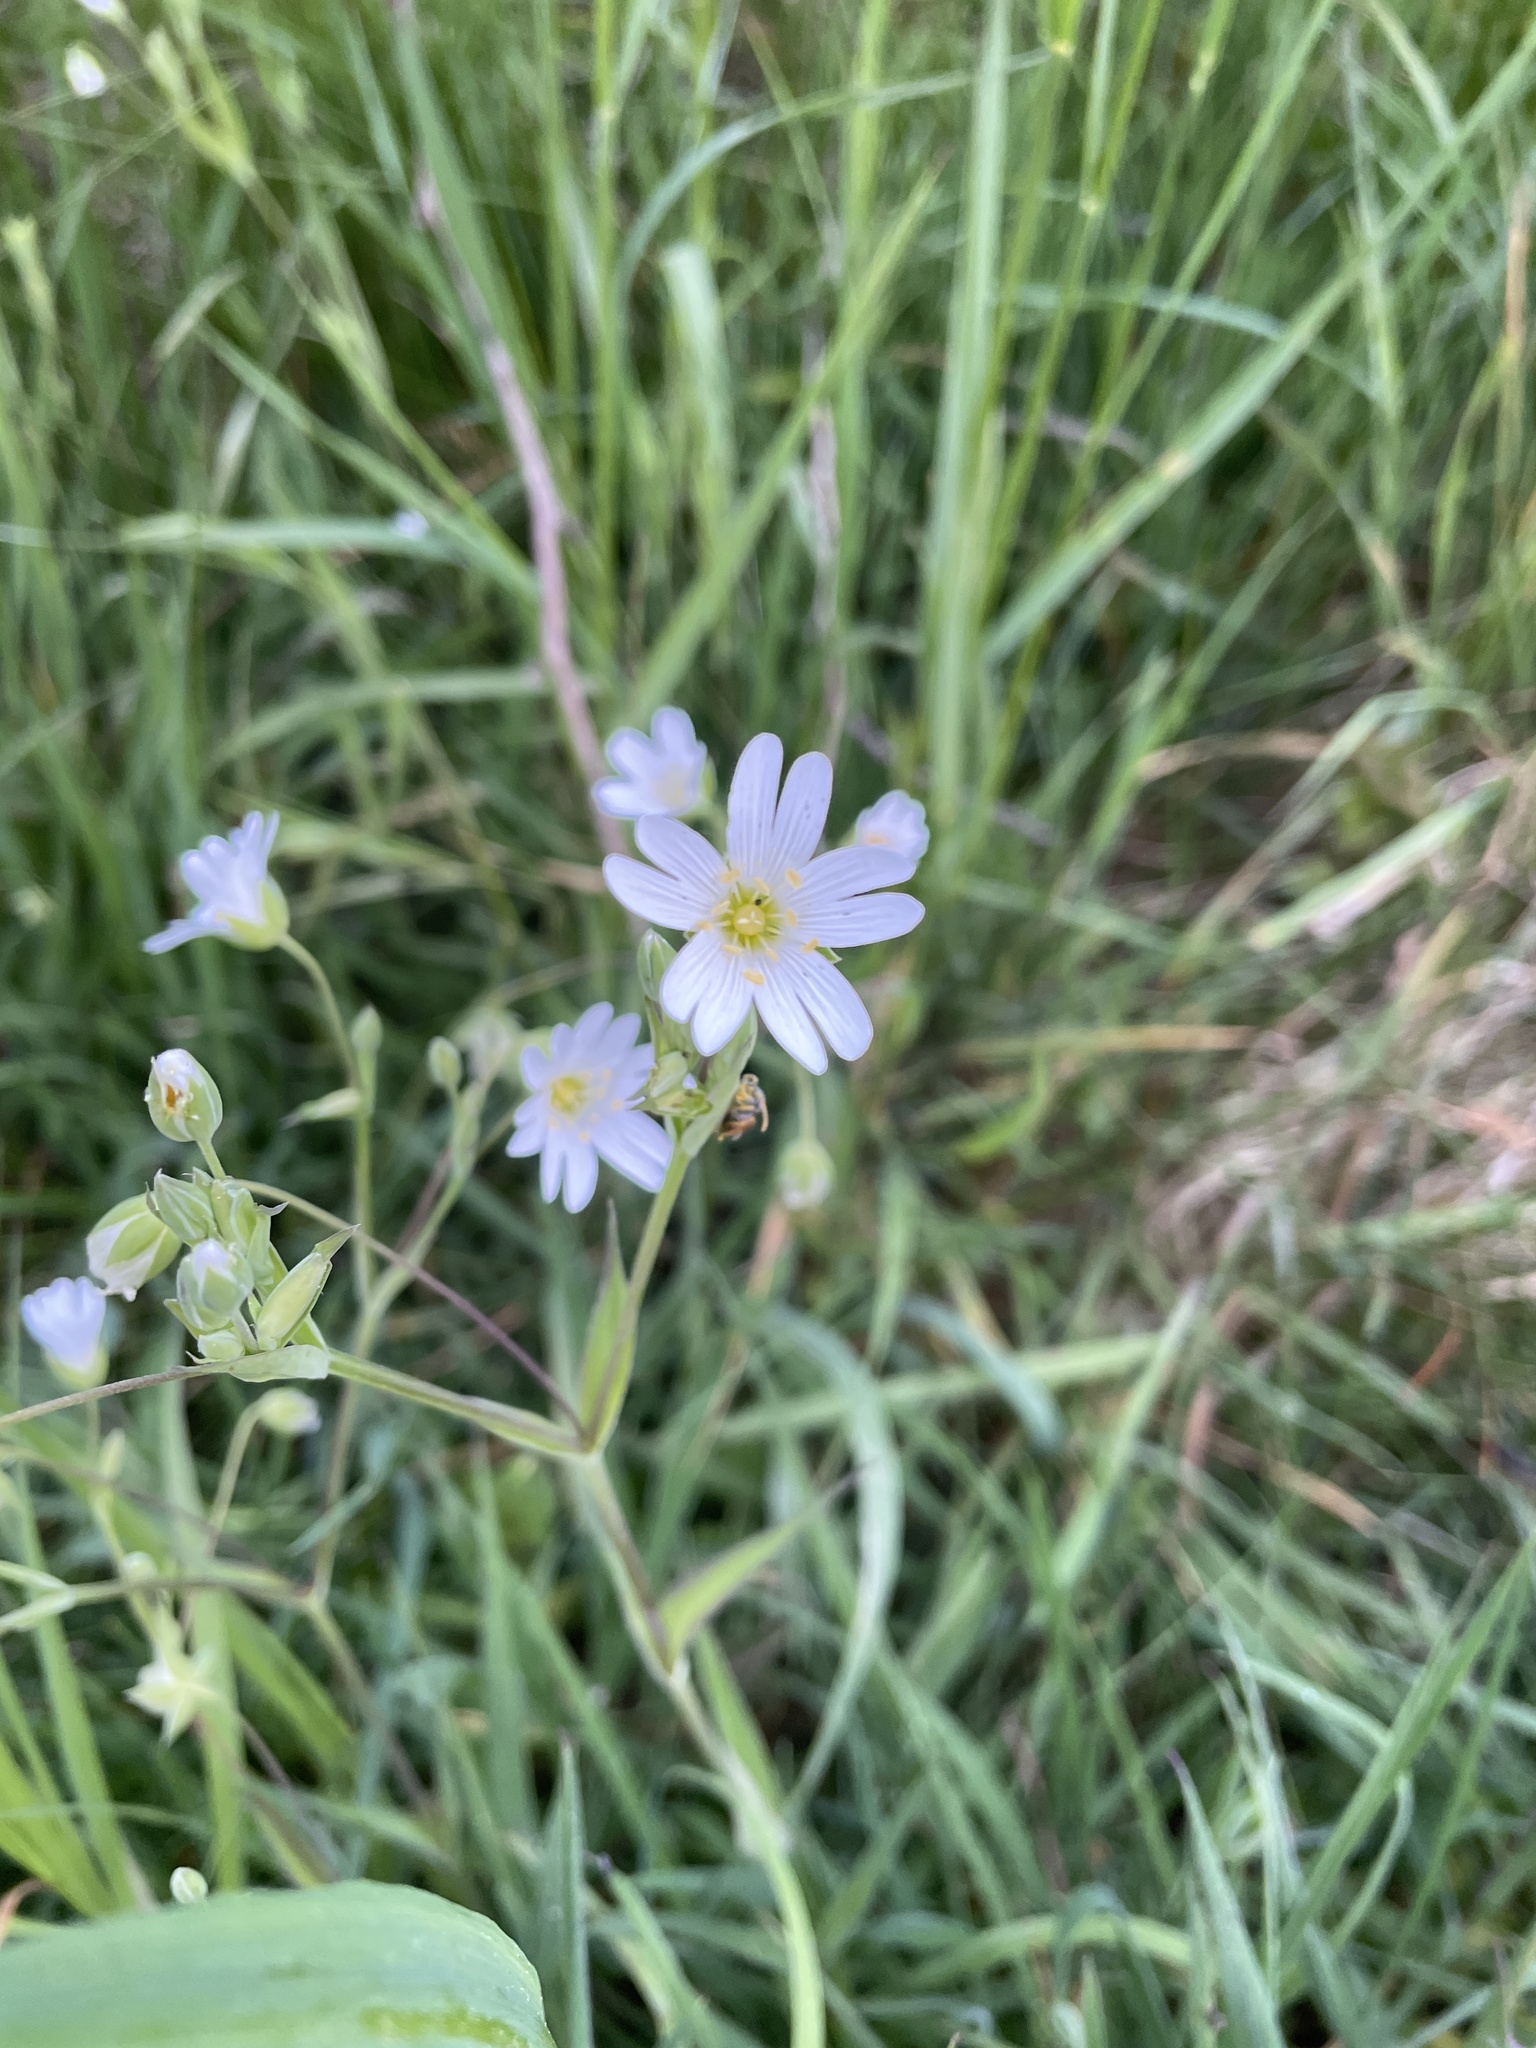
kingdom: Plantae
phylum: Tracheophyta
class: Magnoliopsida
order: Caryophyllales
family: Caryophyllaceae
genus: Rabelera
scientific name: Rabelera holostea
